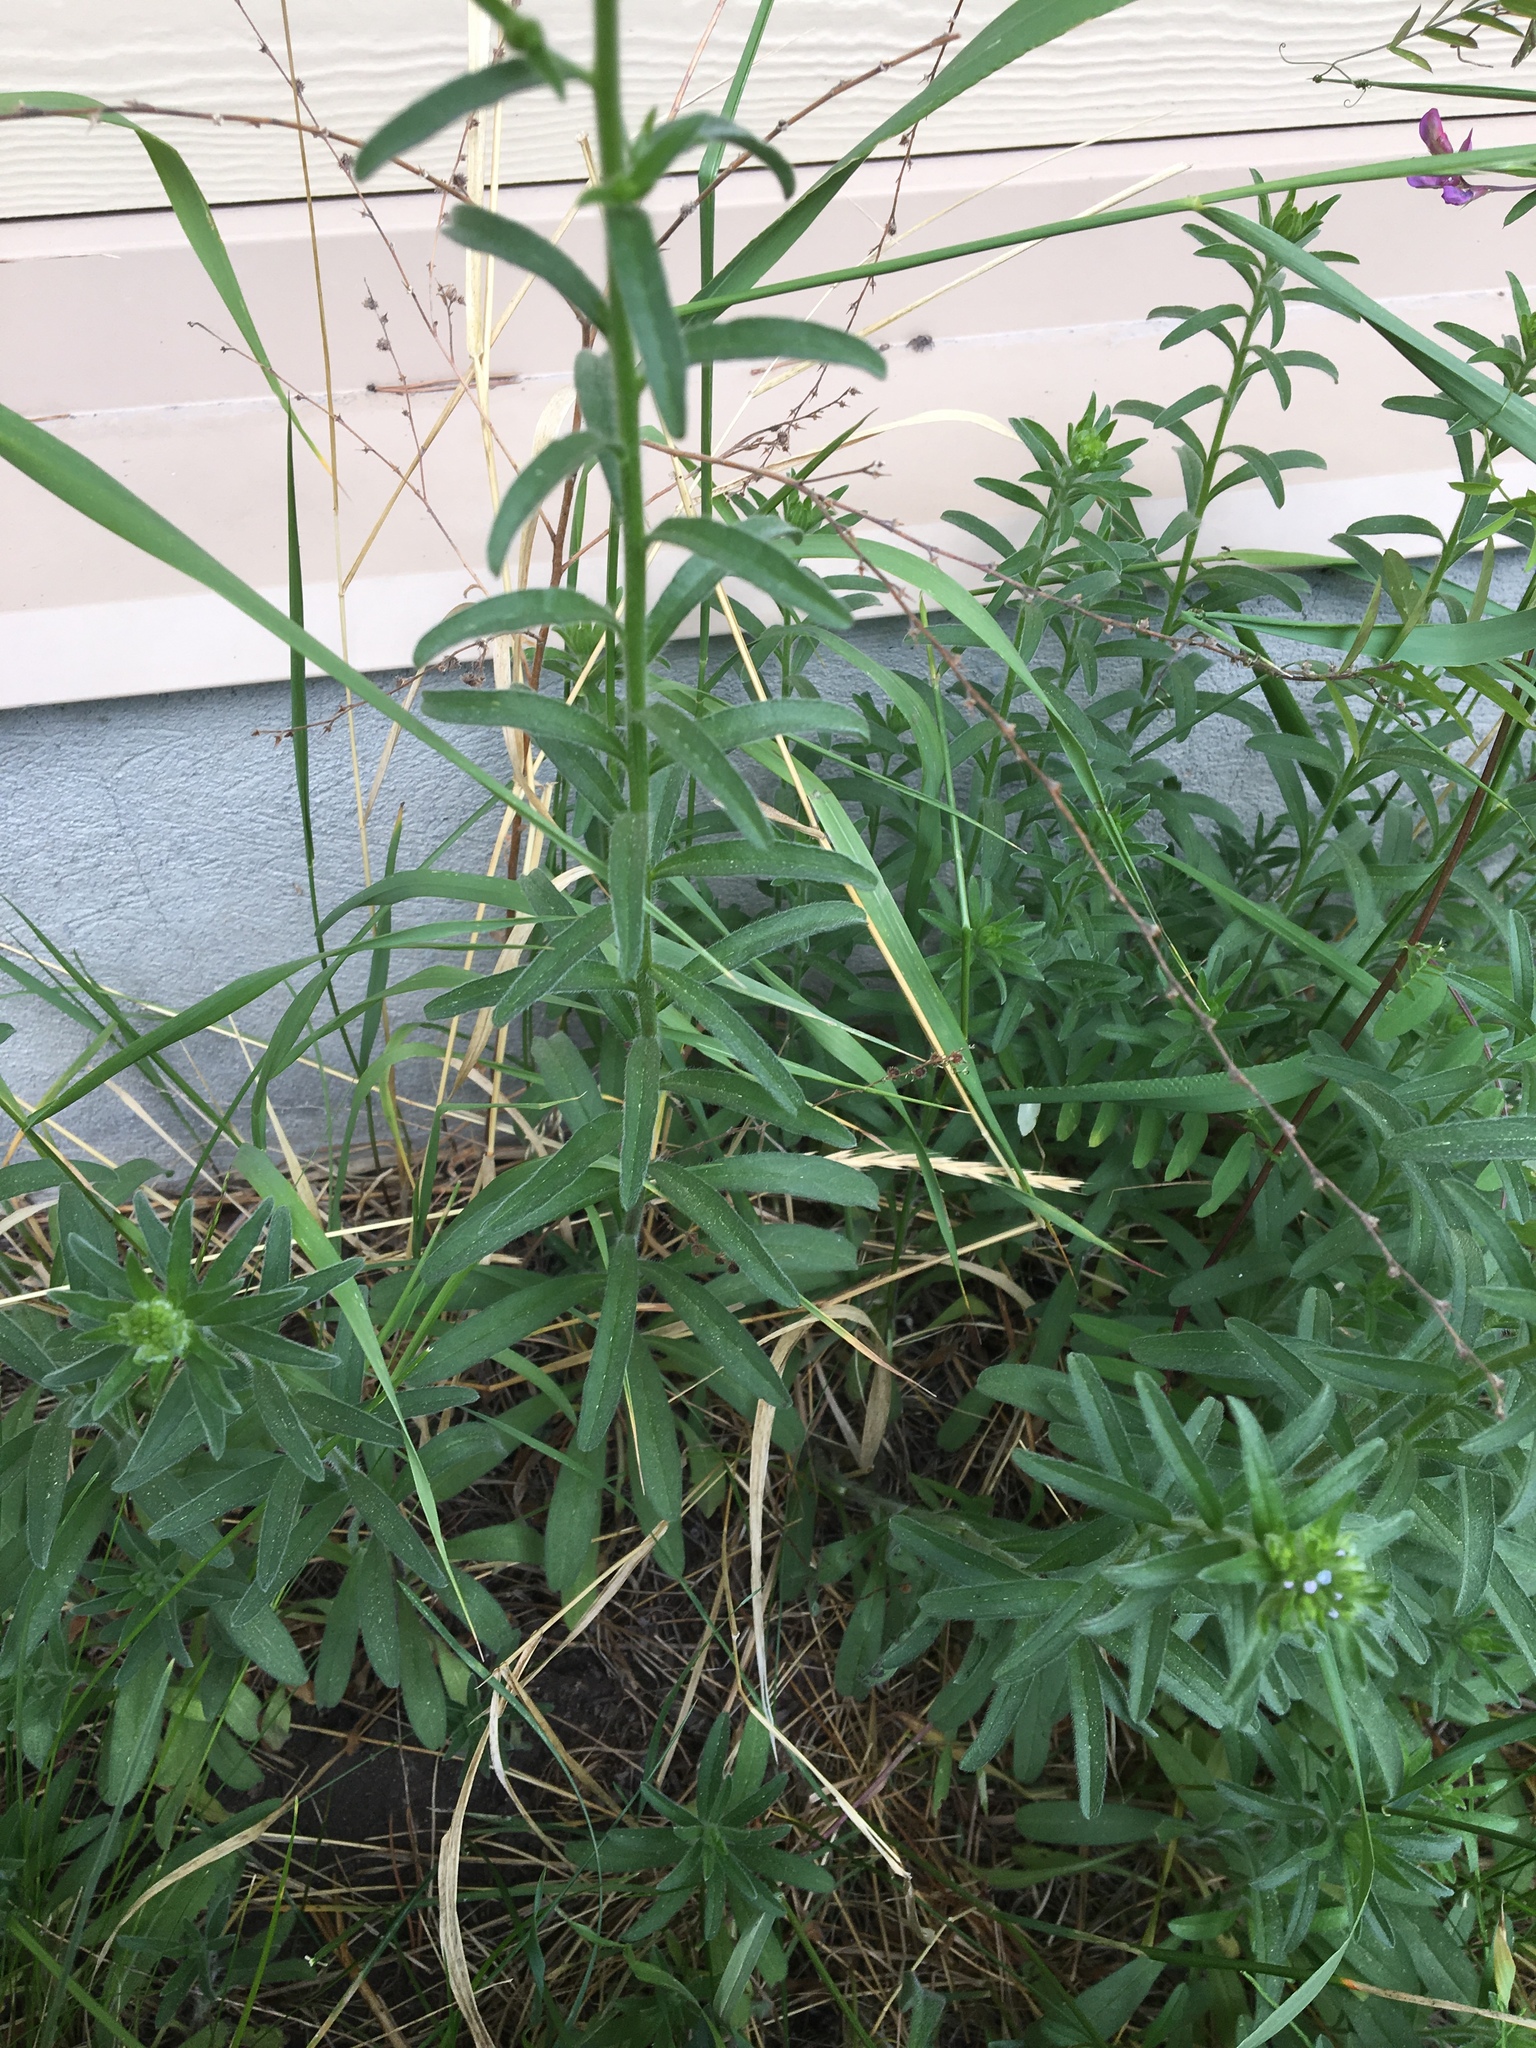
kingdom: Plantae
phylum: Tracheophyta
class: Magnoliopsida
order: Boraginales
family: Boraginaceae
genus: Lappula
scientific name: Lappula squarrosa
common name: European stickseed
